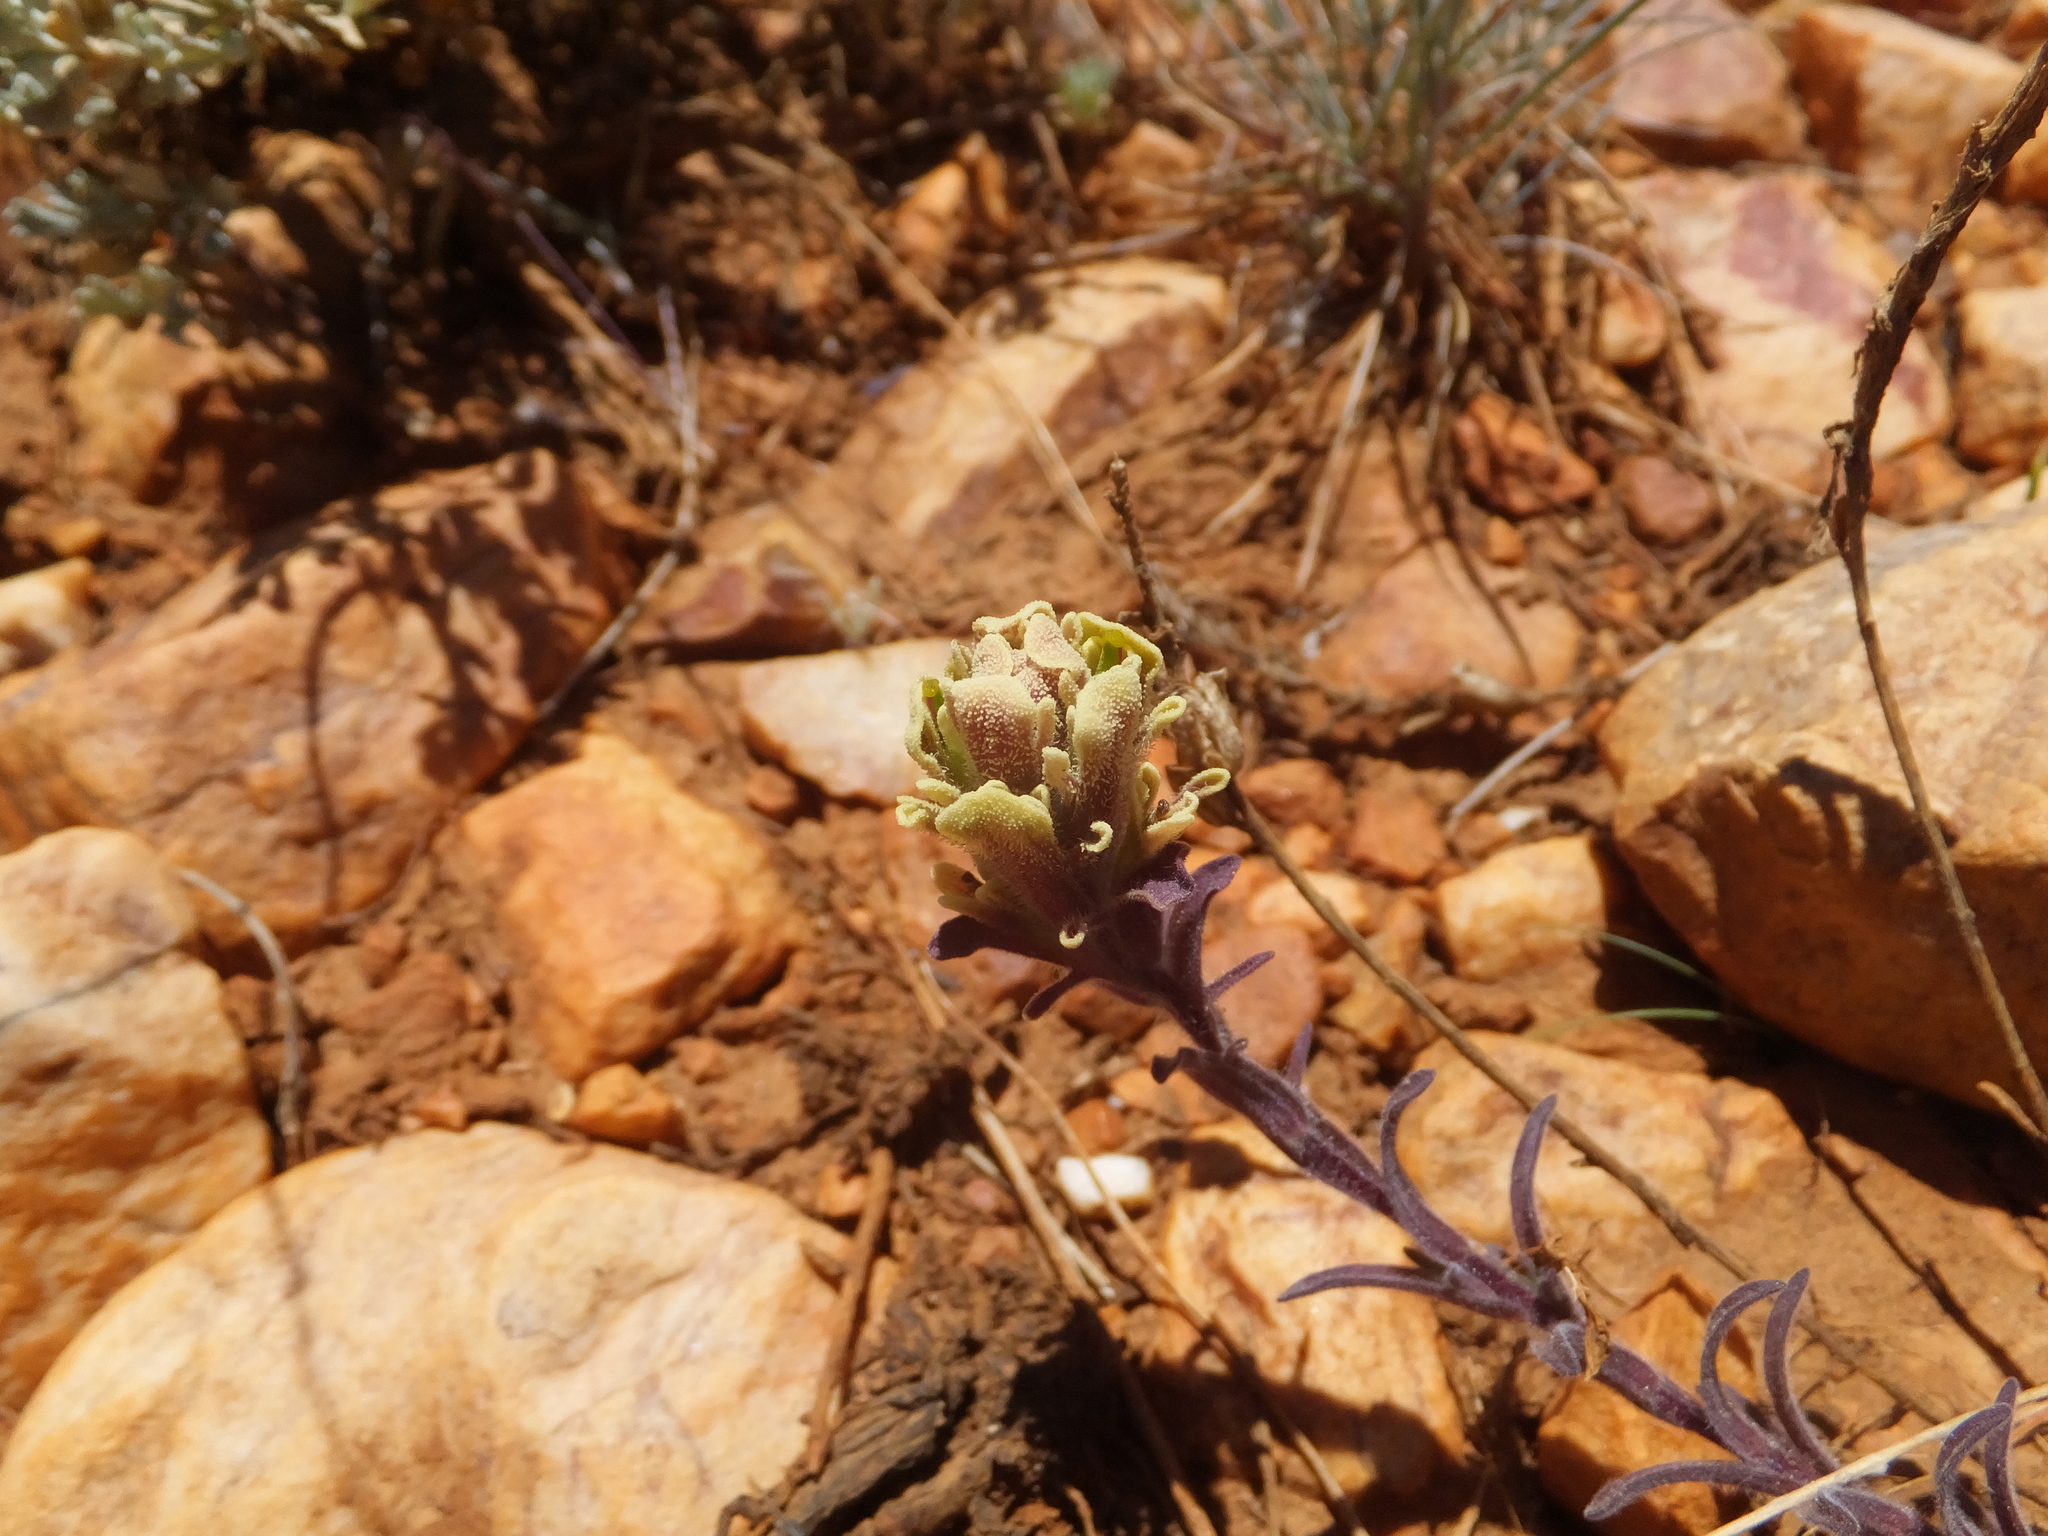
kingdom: Plantae
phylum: Tracheophyta
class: Magnoliopsida
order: Lamiales
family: Orobanchaceae
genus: Castilleja
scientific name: Castilleja cinerea
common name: Ash-gray indian paintbrush
